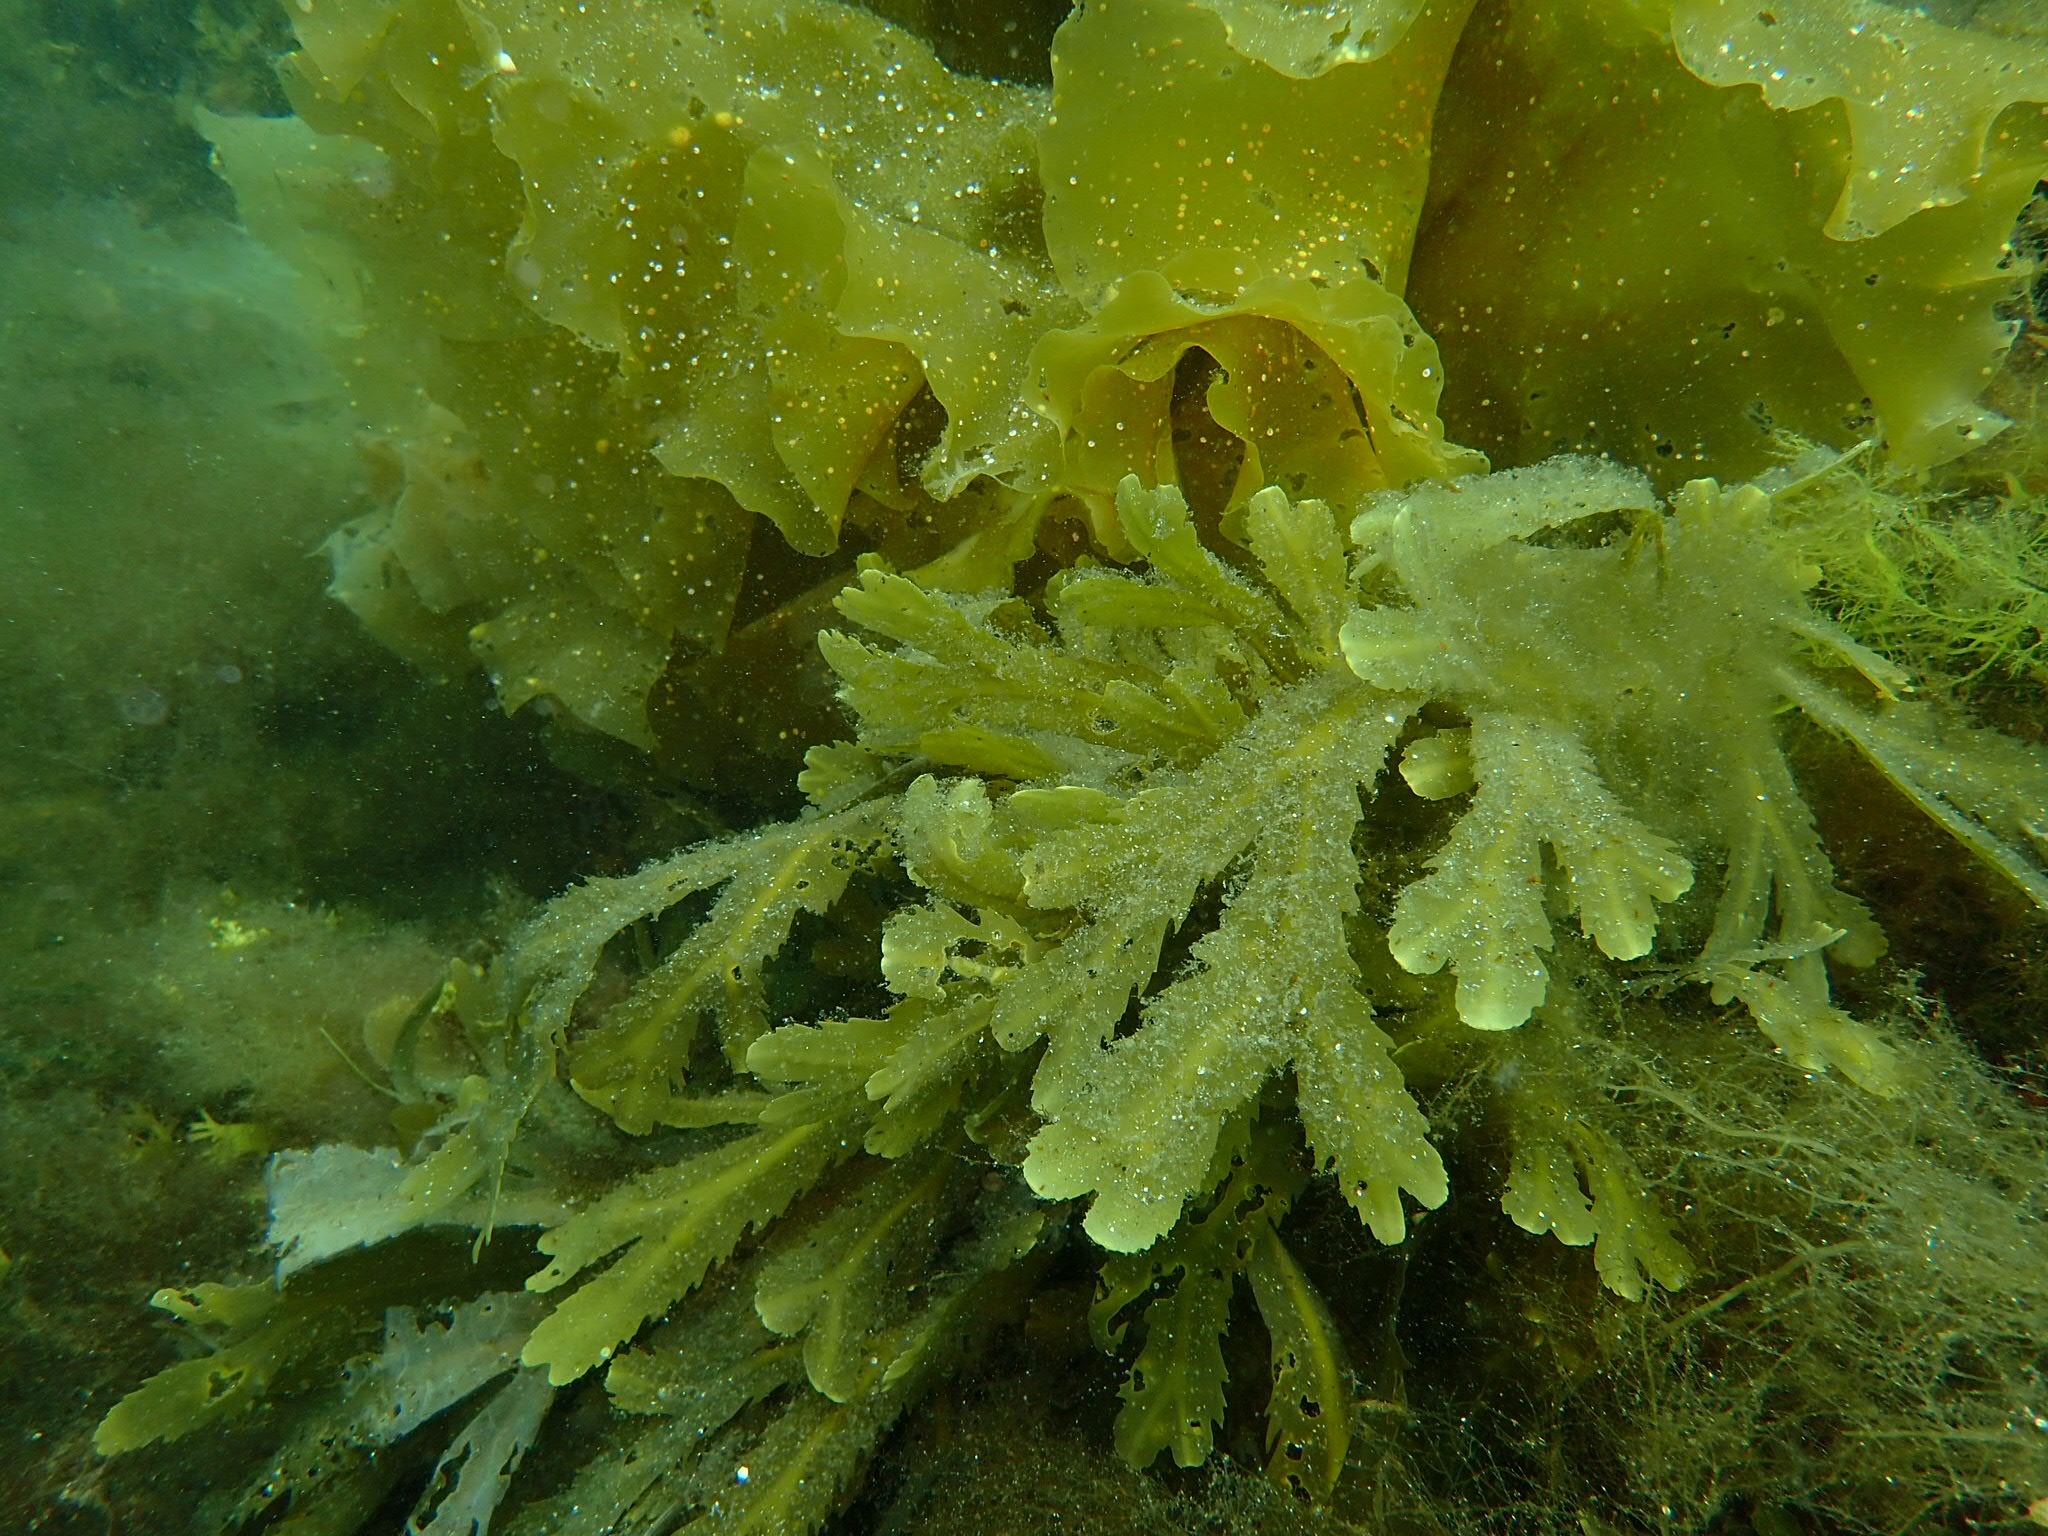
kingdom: Chromista
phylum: Ochrophyta
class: Phaeophyceae
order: Fucales
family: Fucaceae
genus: Fucus
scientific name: Fucus serratus
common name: Toothed wrack
